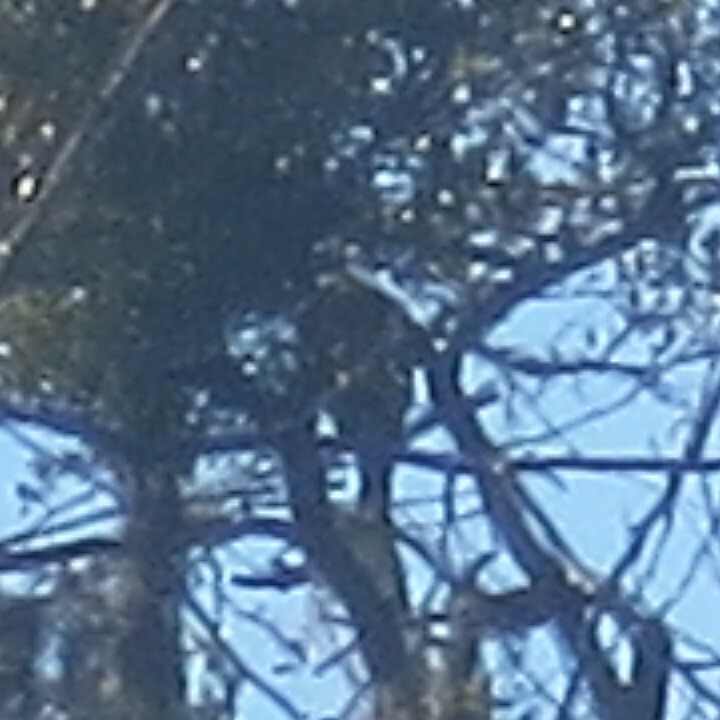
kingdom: Animalia
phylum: Chordata
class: Aves
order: Accipitriformes
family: Accipitridae
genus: Buteo
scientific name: Buteo lineatus
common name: Red-shouldered hawk
